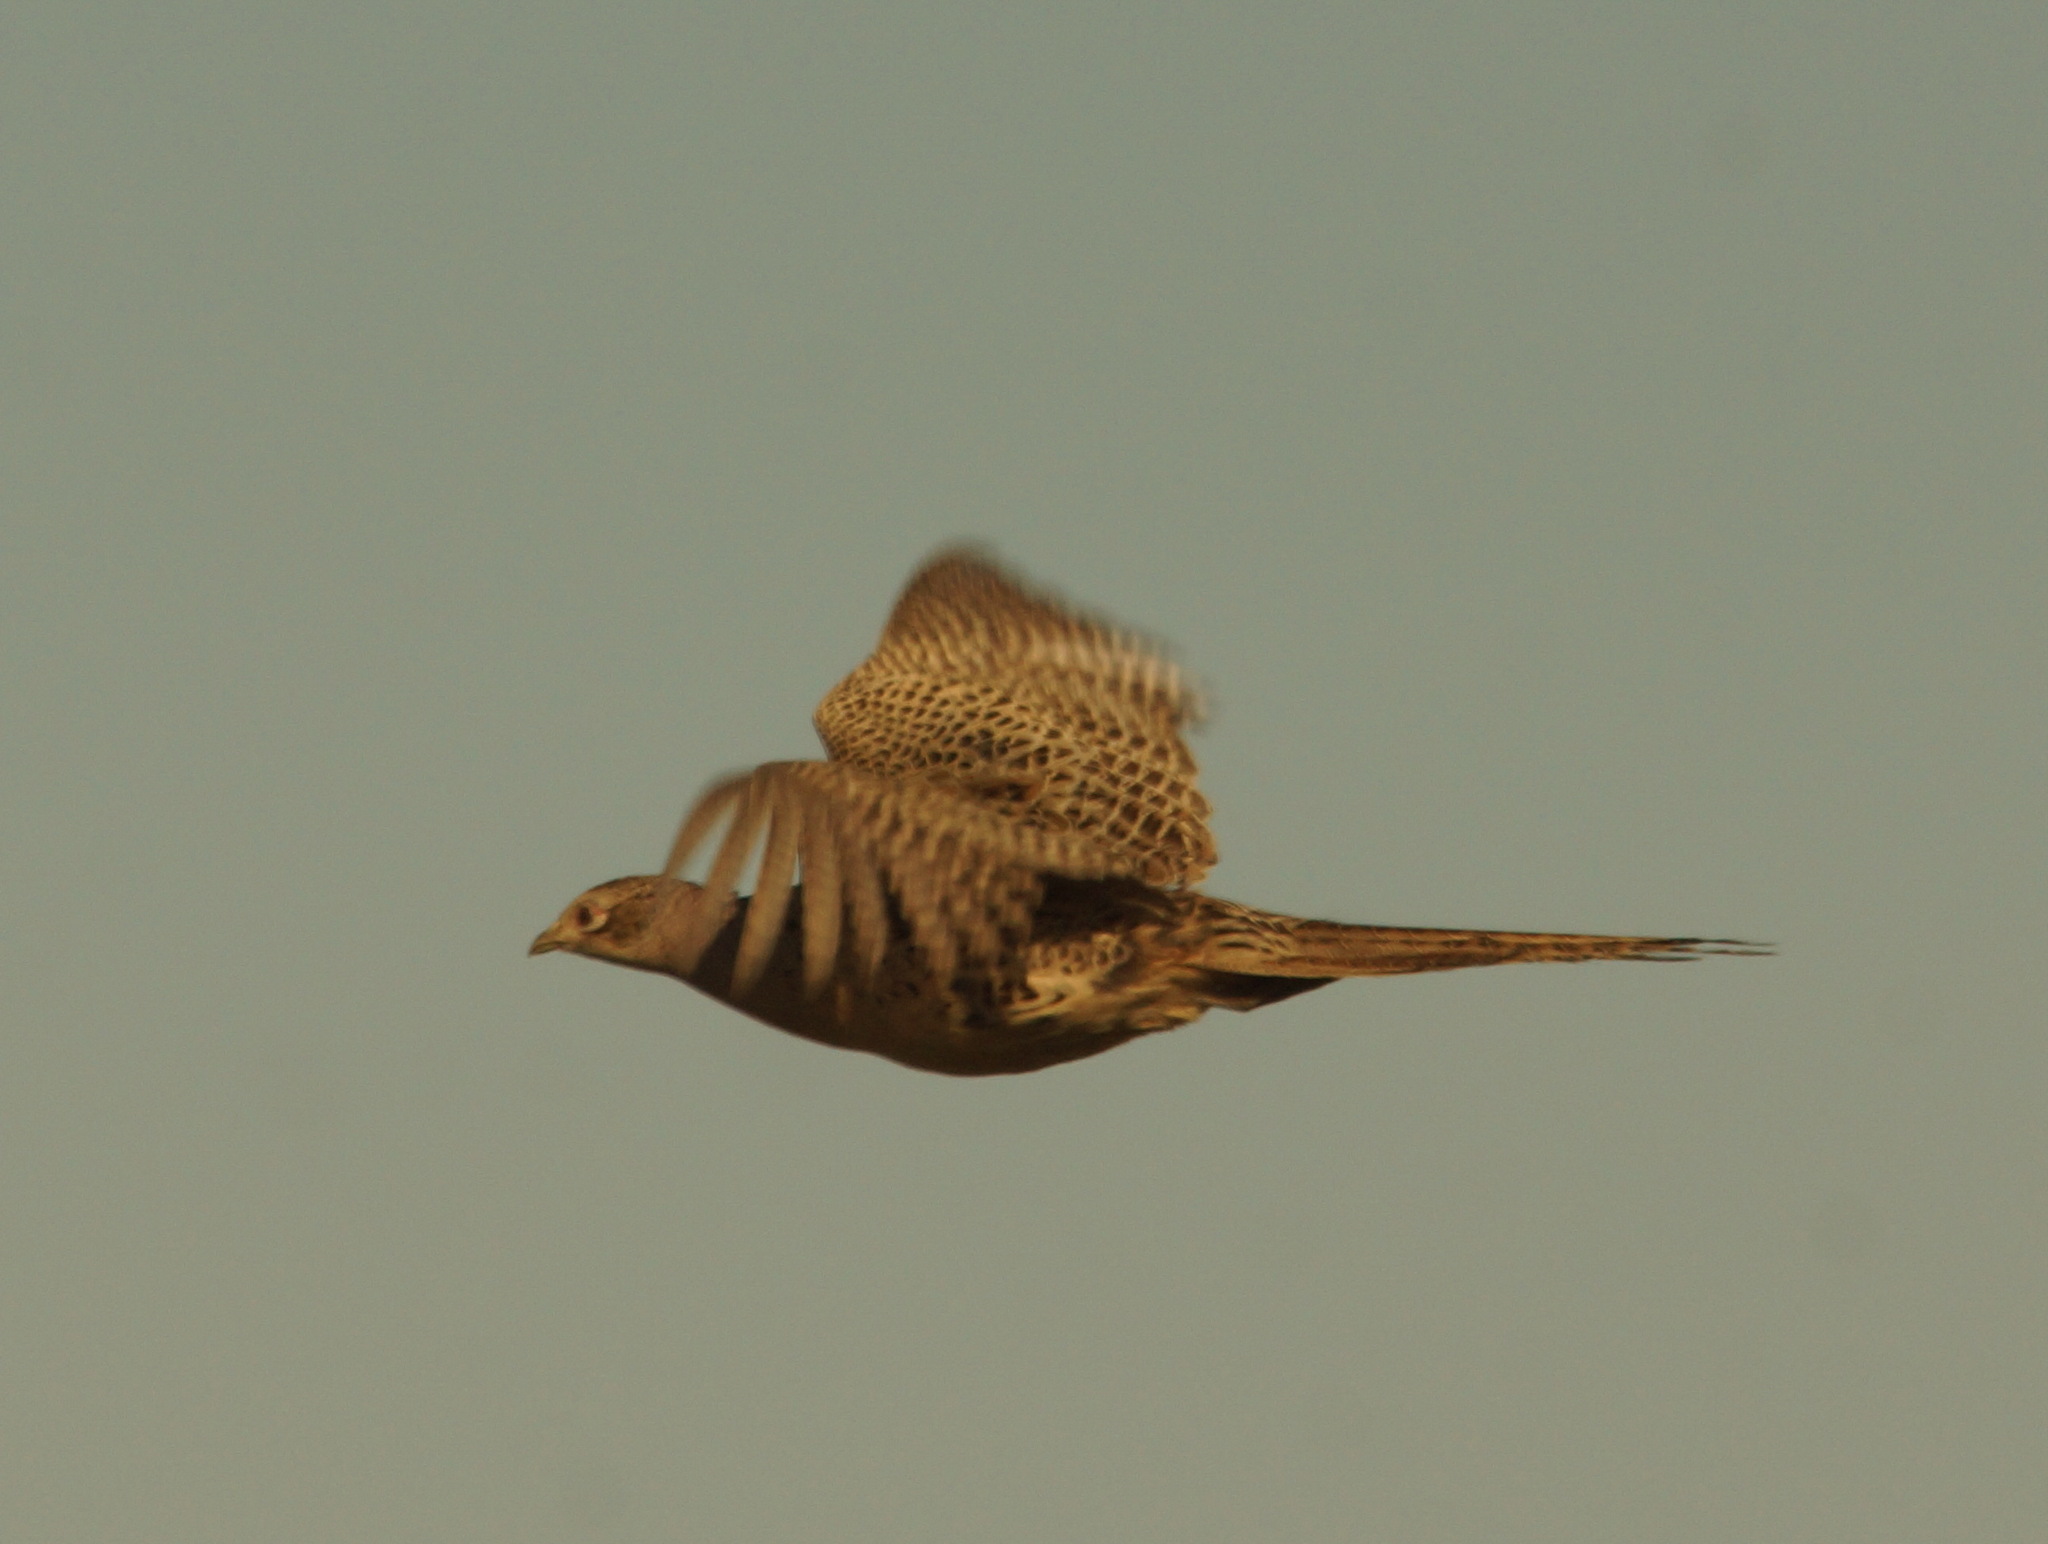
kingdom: Animalia
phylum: Chordata
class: Aves
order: Galliformes
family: Phasianidae
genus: Phasianus
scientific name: Phasianus colchicus
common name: Common pheasant
